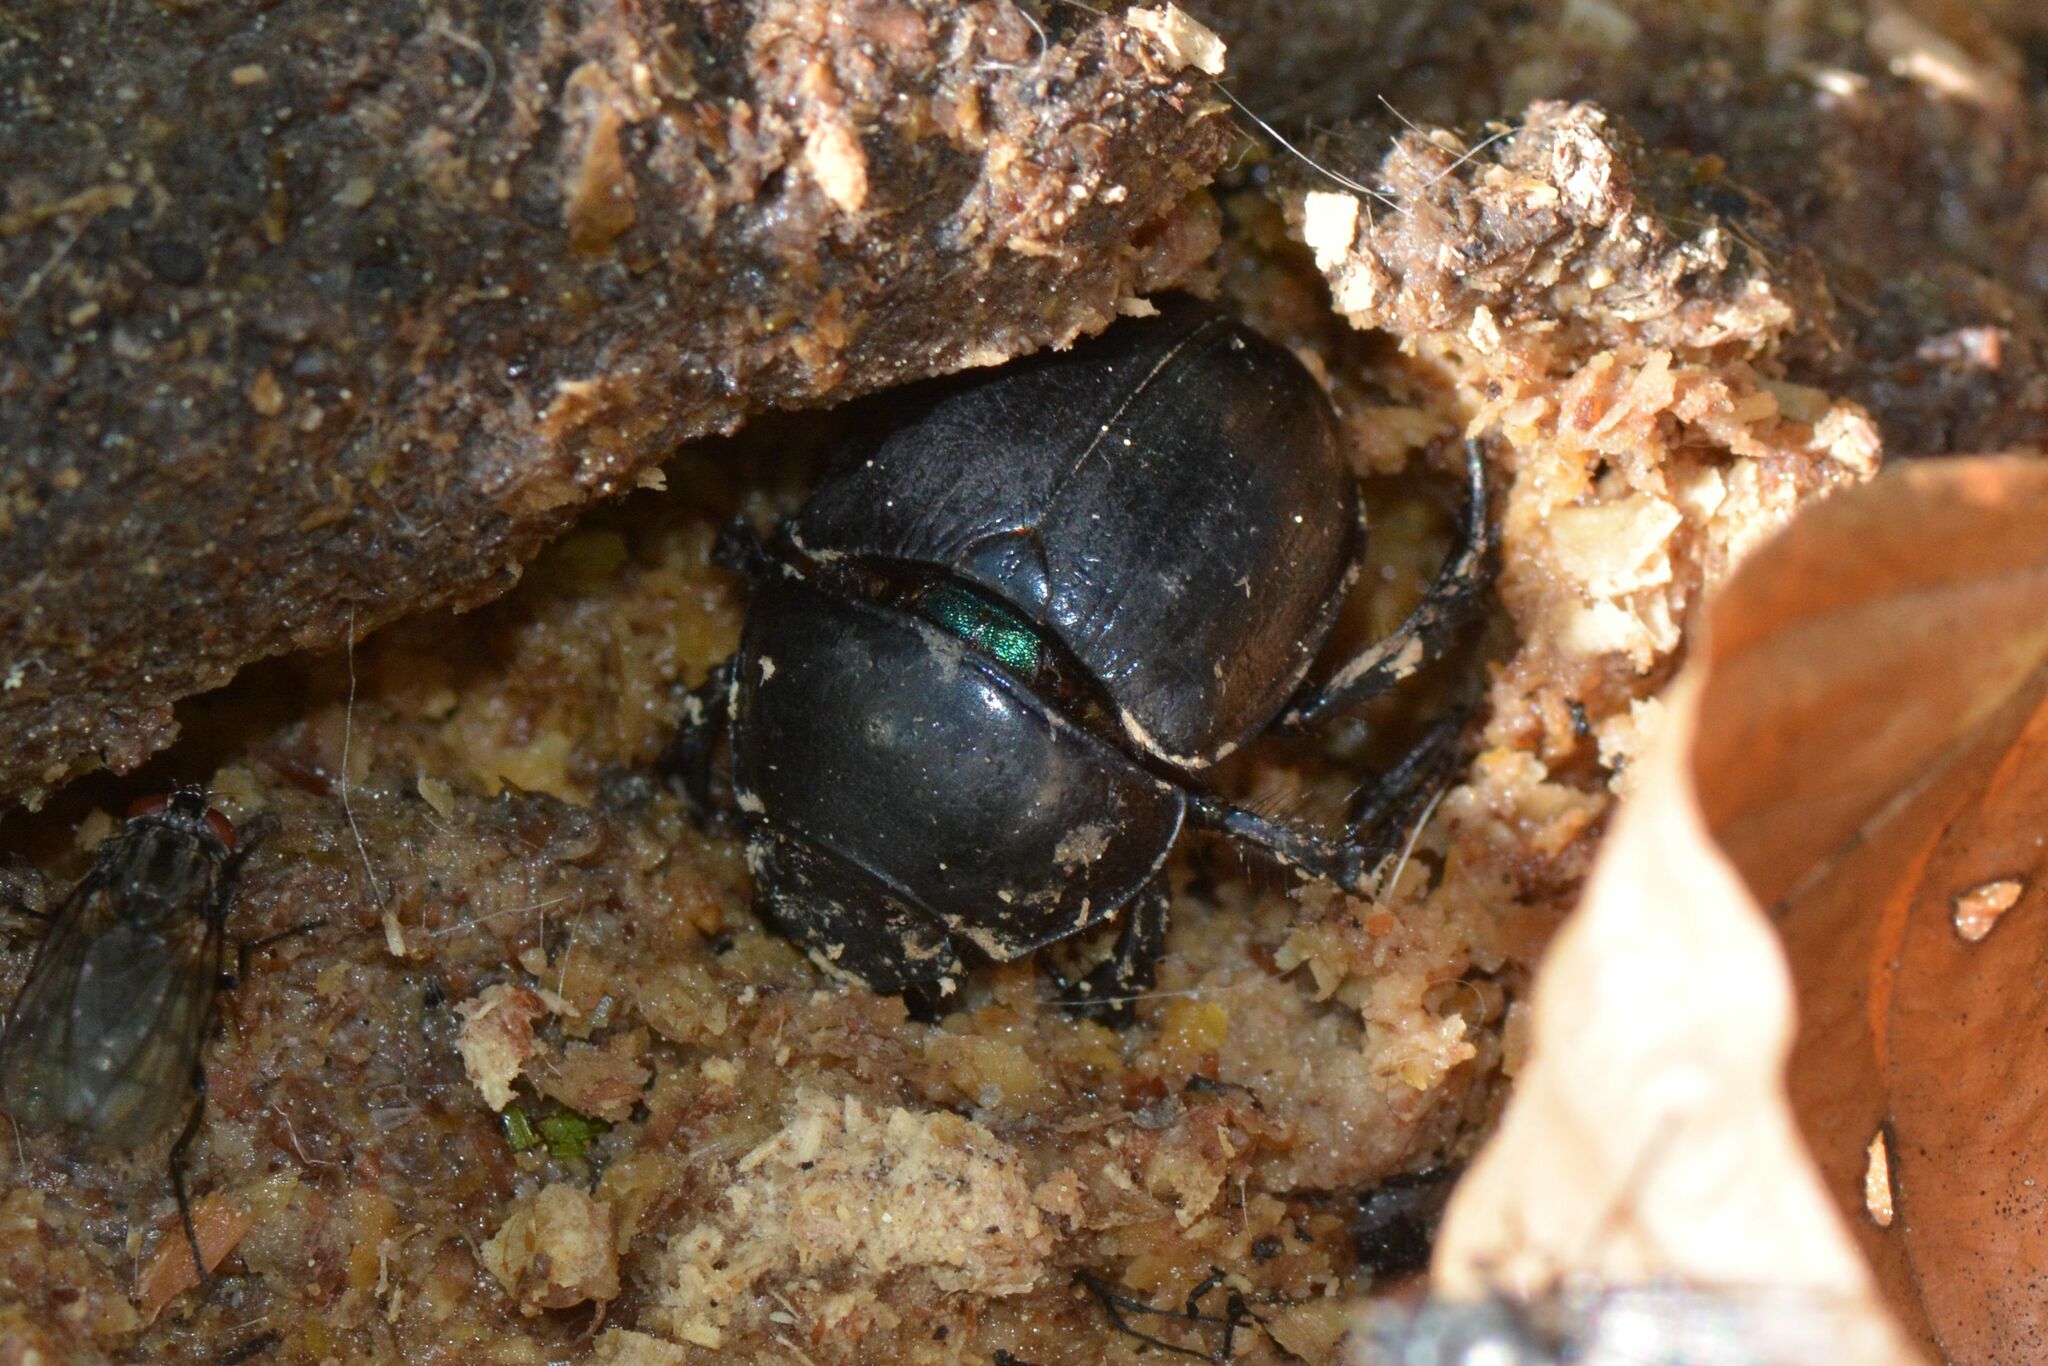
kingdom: Animalia
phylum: Arthropoda
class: Insecta
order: Coleoptera
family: Geotrupidae
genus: Anoplotrupes
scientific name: Anoplotrupes stercorosus
